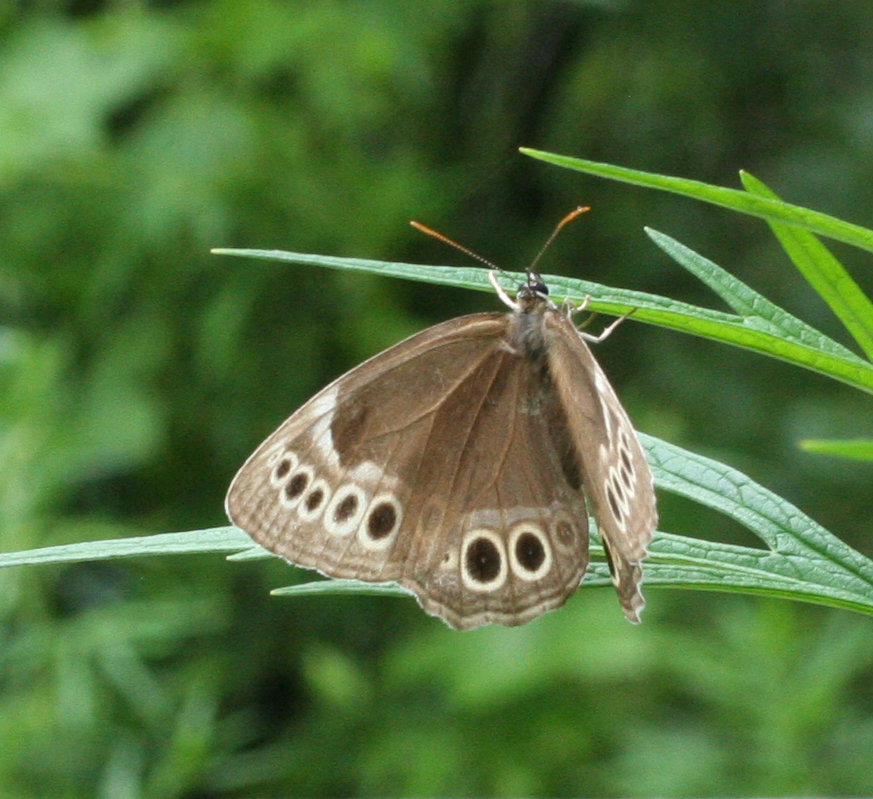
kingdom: Animalia
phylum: Arthropoda
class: Insecta
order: Lepidoptera
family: Nymphalidae
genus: Pararge
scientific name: Pararge Lopinga achine
